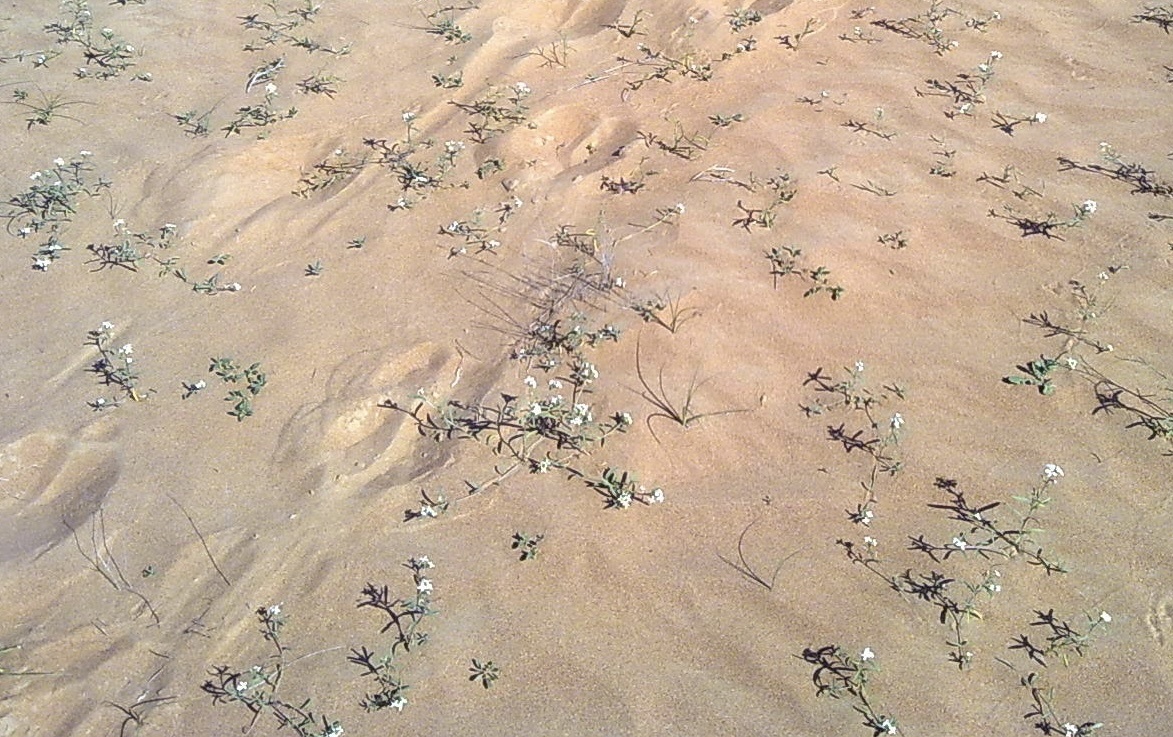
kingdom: Plantae
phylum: Tracheophyta
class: Magnoliopsida
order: Brassicales
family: Brassicaceae
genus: Eremobium
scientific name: Eremobium aegyptiacum
